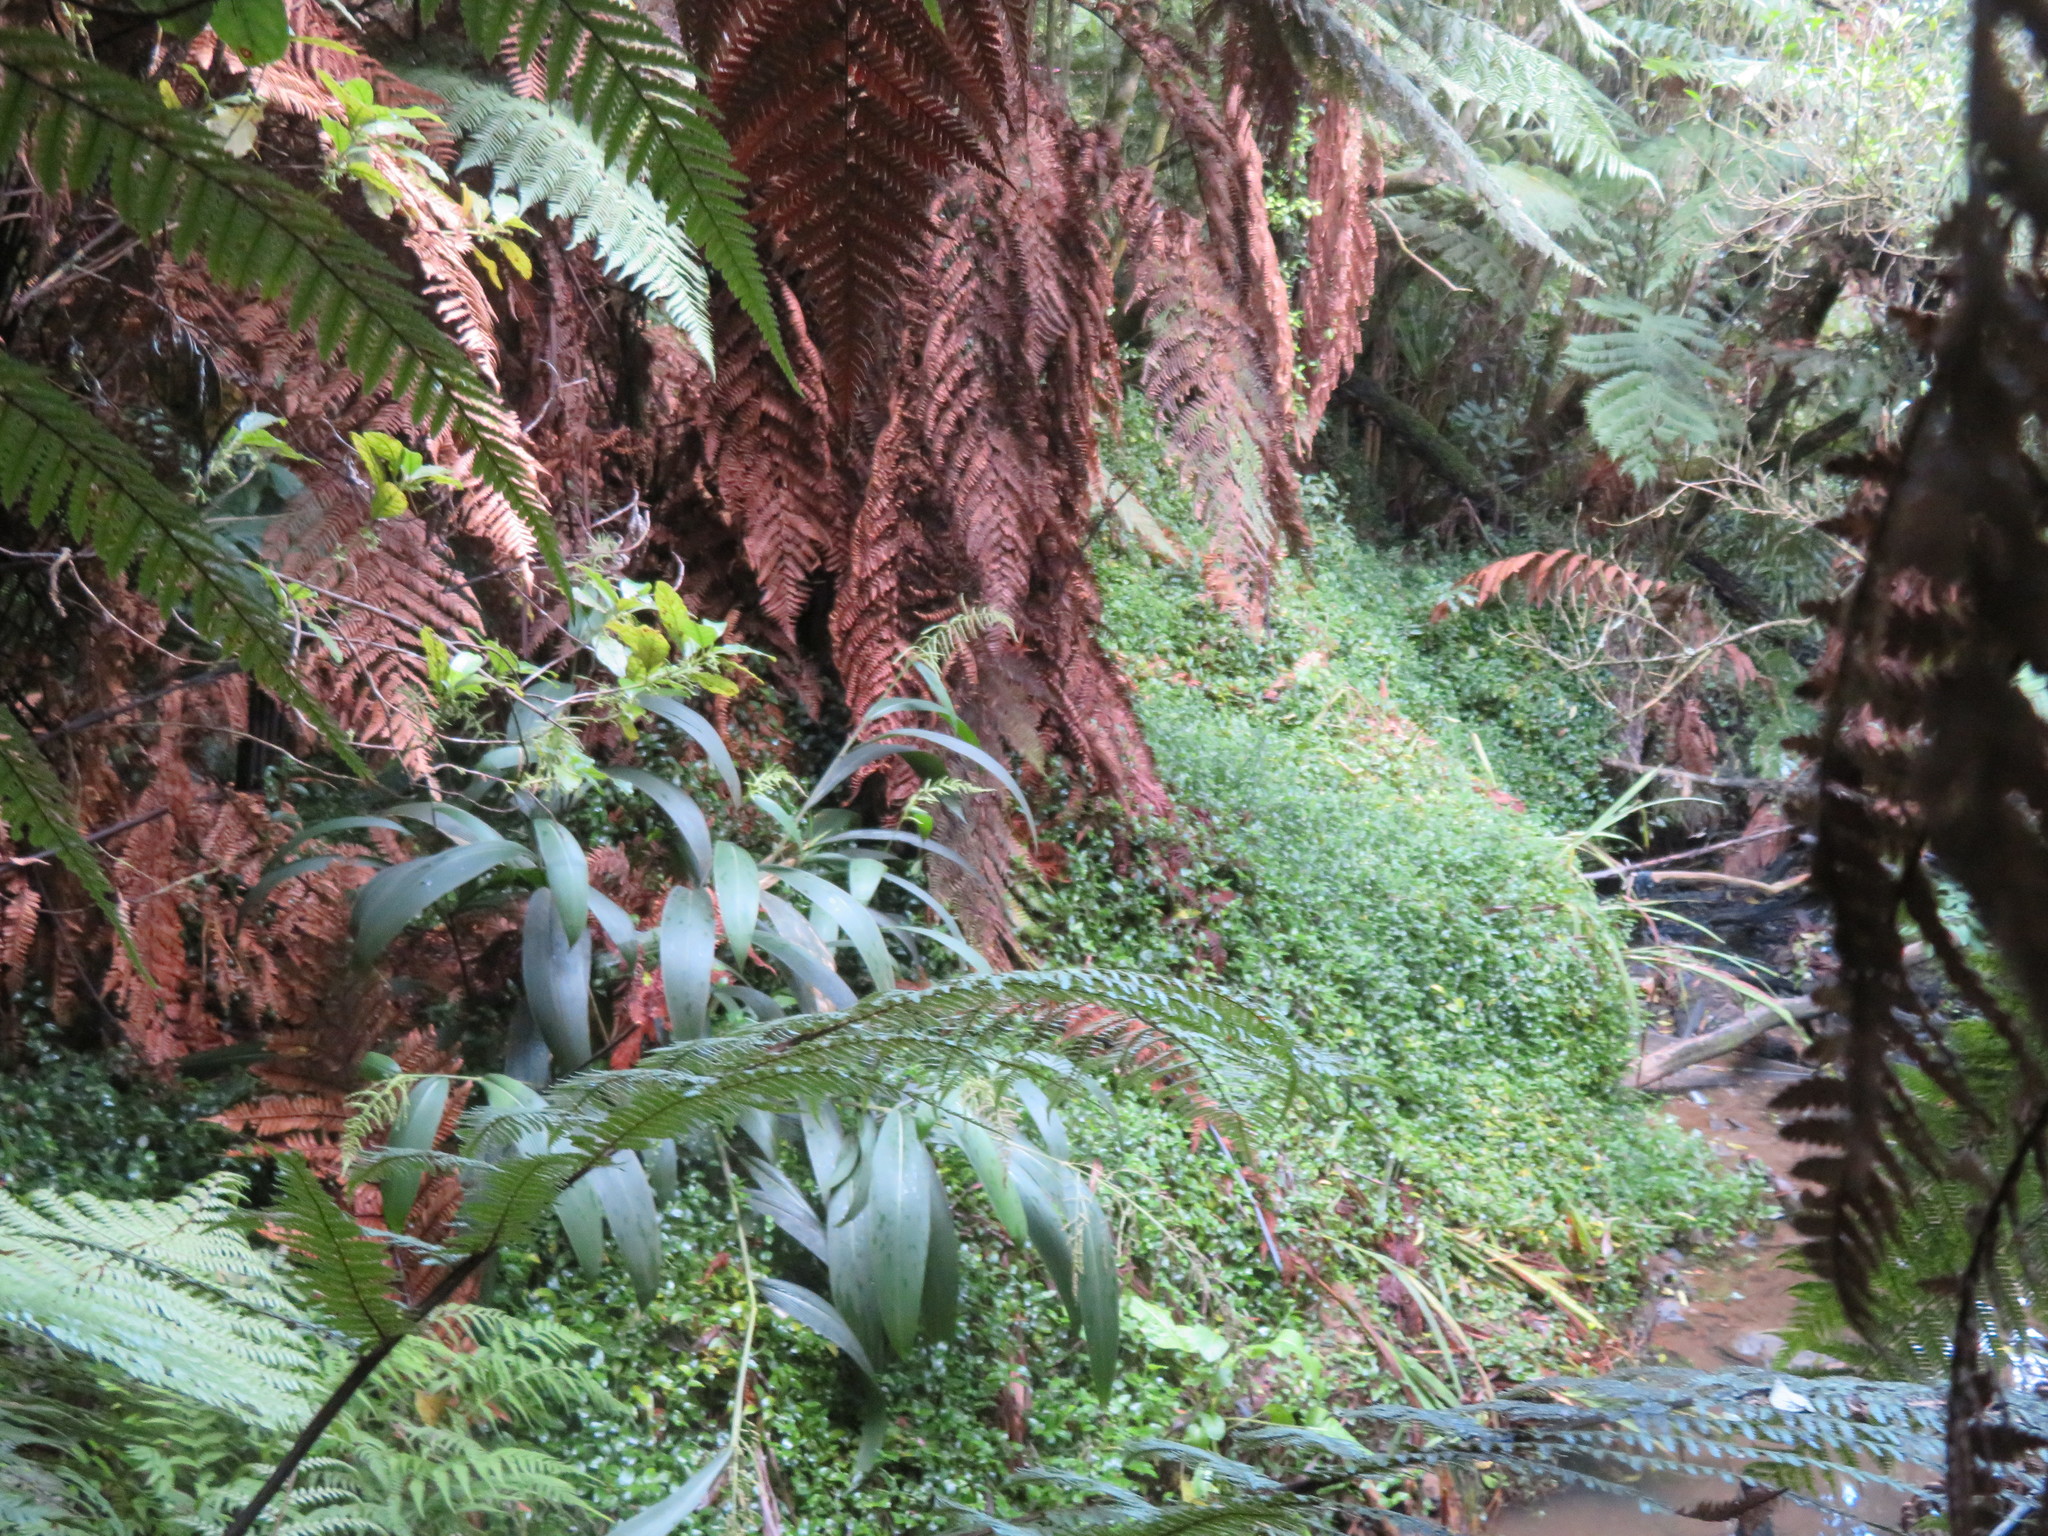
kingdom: Plantae
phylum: Tracheophyta
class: Magnoliopsida
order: Gentianales
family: Rubiaceae
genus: Coprosma
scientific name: Coprosma autumnalis
